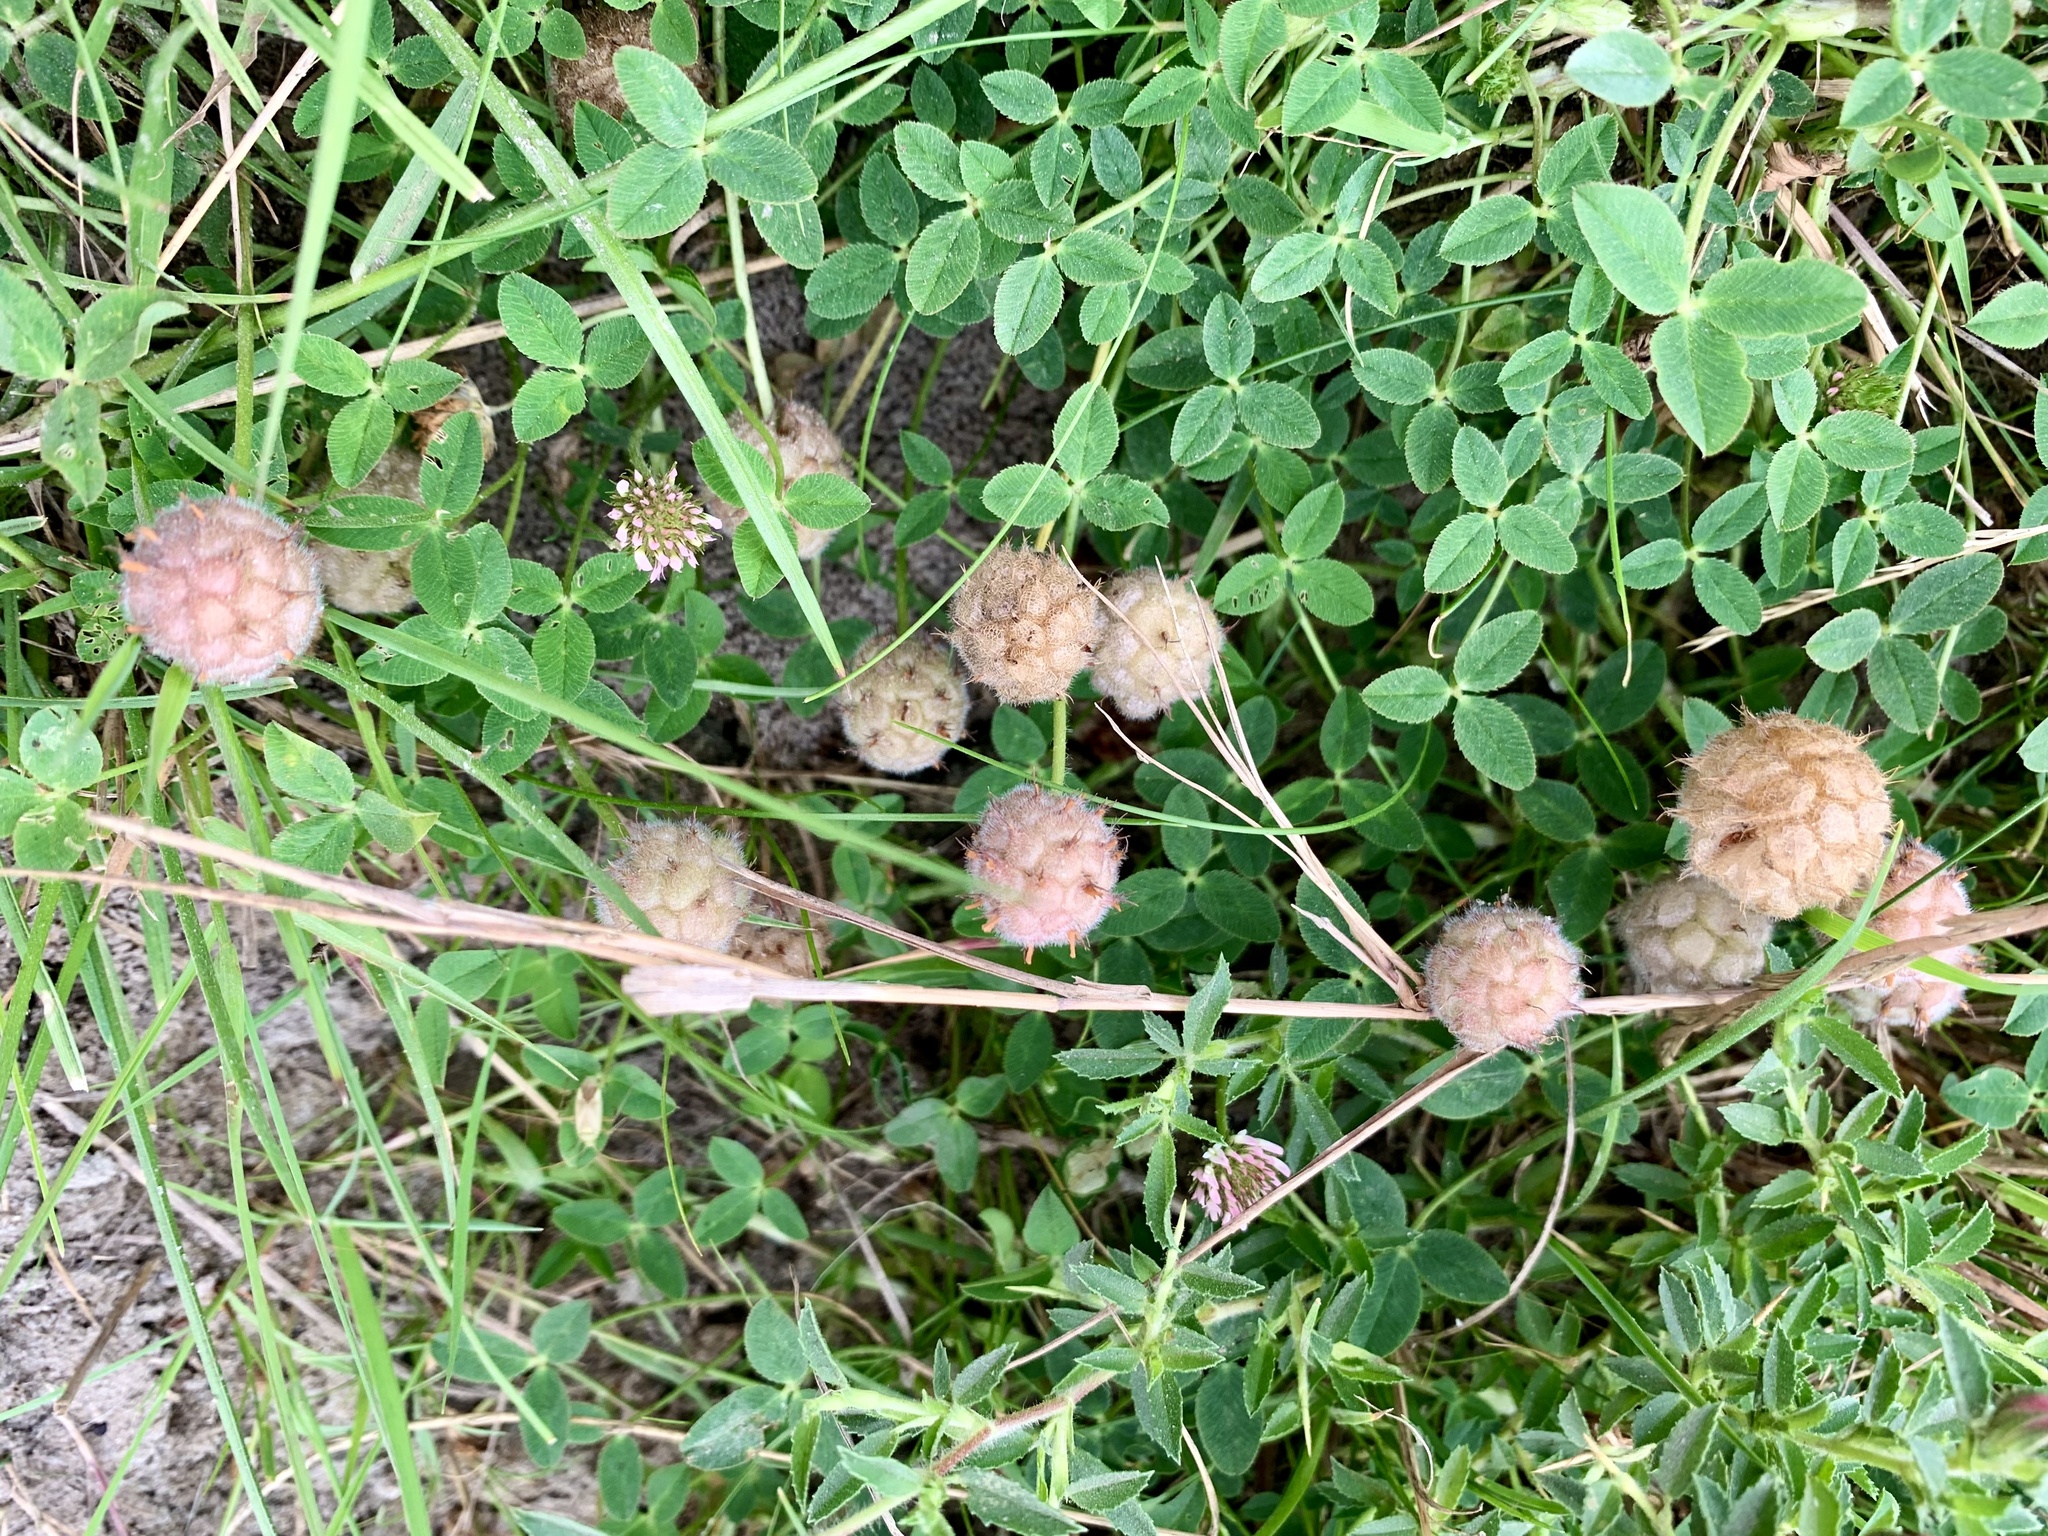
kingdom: Plantae
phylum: Tracheophyta
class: Magnoliopsida
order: Fabales
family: Fabaceae
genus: Trifolium
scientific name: Trifolium fragiferum
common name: Strawberry clover
